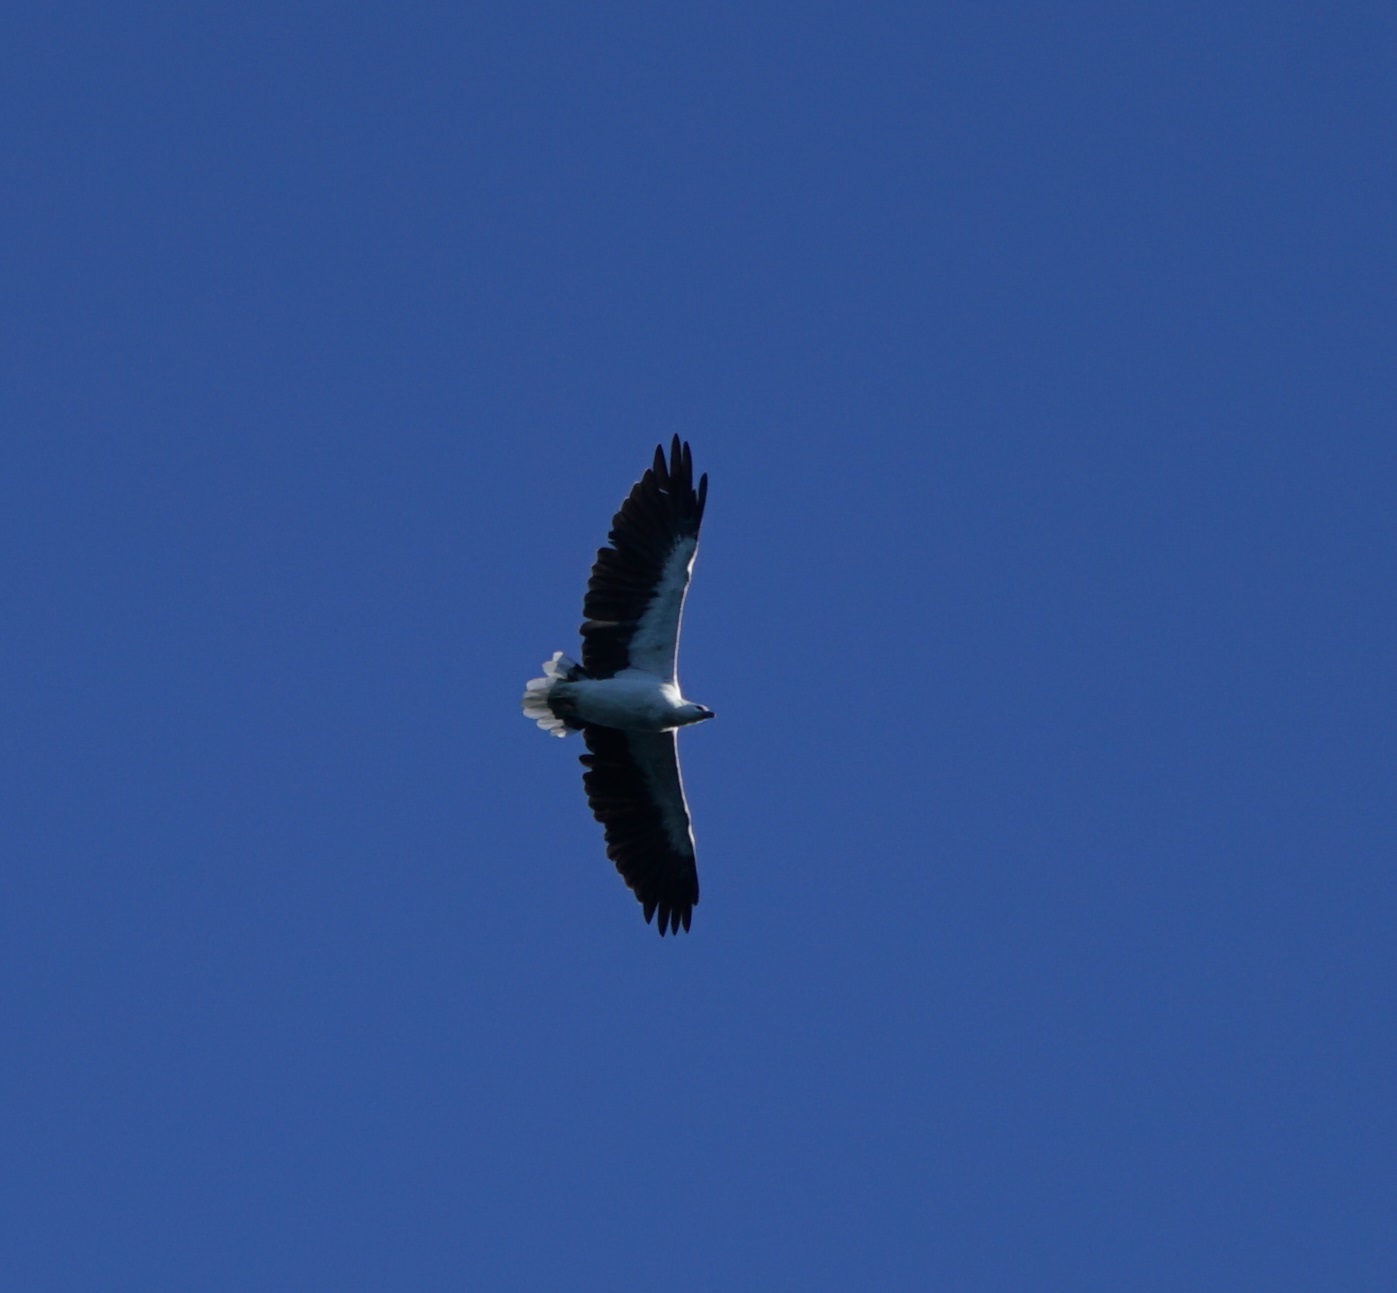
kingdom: Animalia
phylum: Chordata
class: Aves
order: Accipitriformes
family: Accipitridae
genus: Haliaeetus
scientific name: Haliaeetus leucogaster
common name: White-bellied sea eagle
